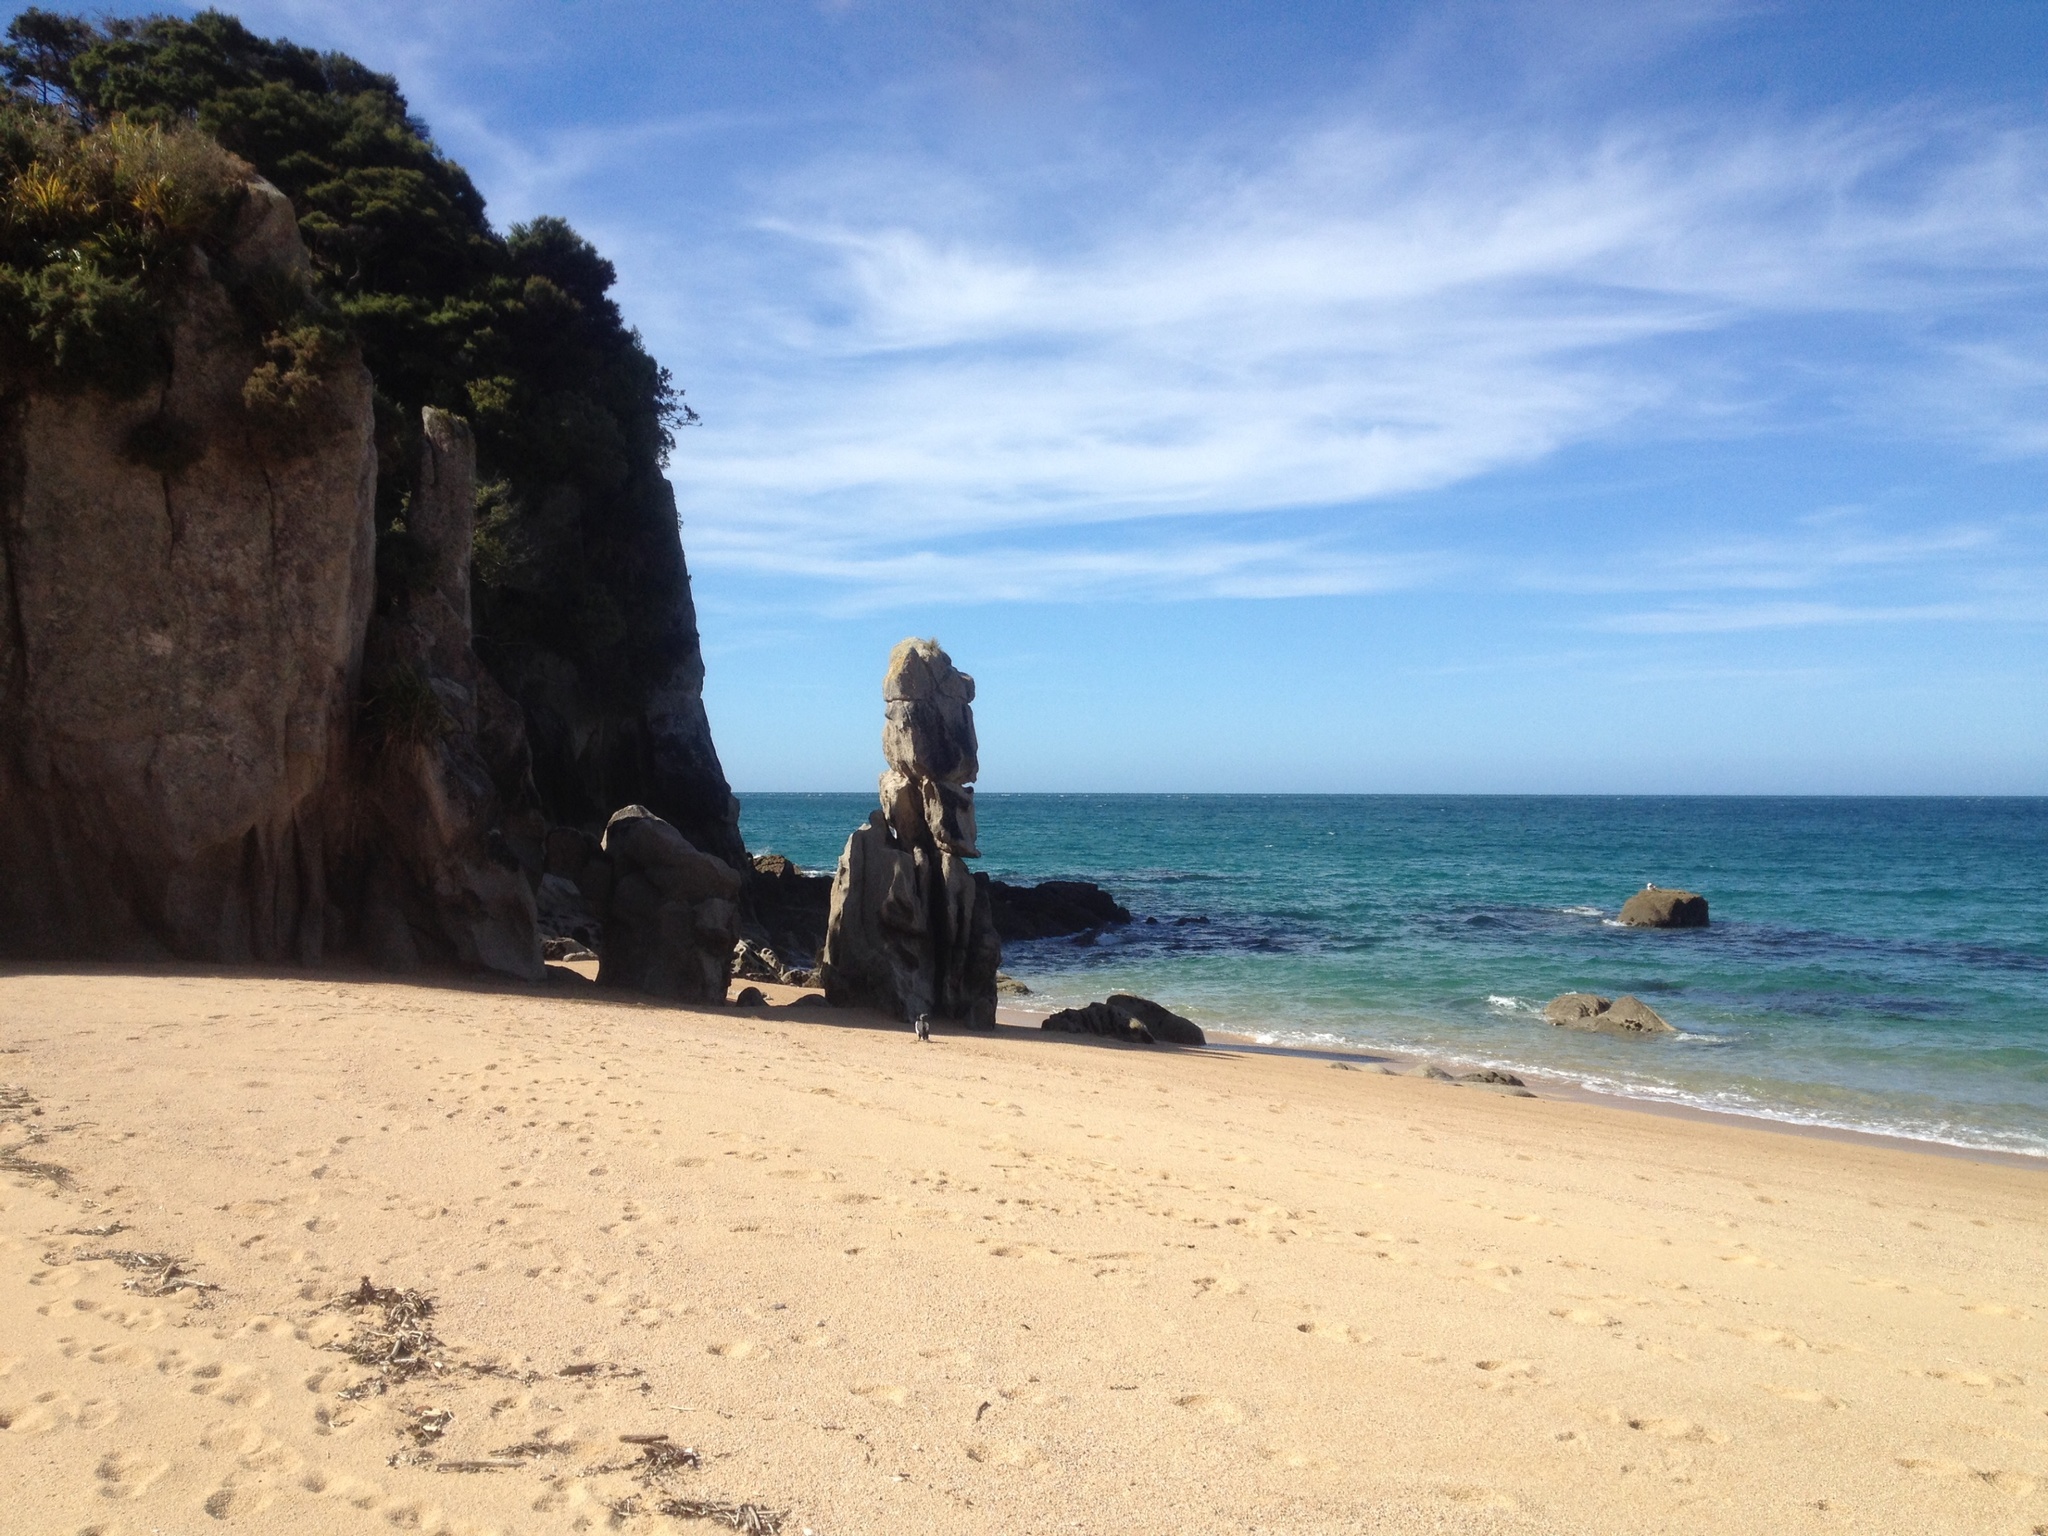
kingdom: Animalia
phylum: Chordata
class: Aves
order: Suliformes
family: Phalacrocoracidae
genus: Phalacrocorax
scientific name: Phalacrocorax varius
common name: Pied cormorant
